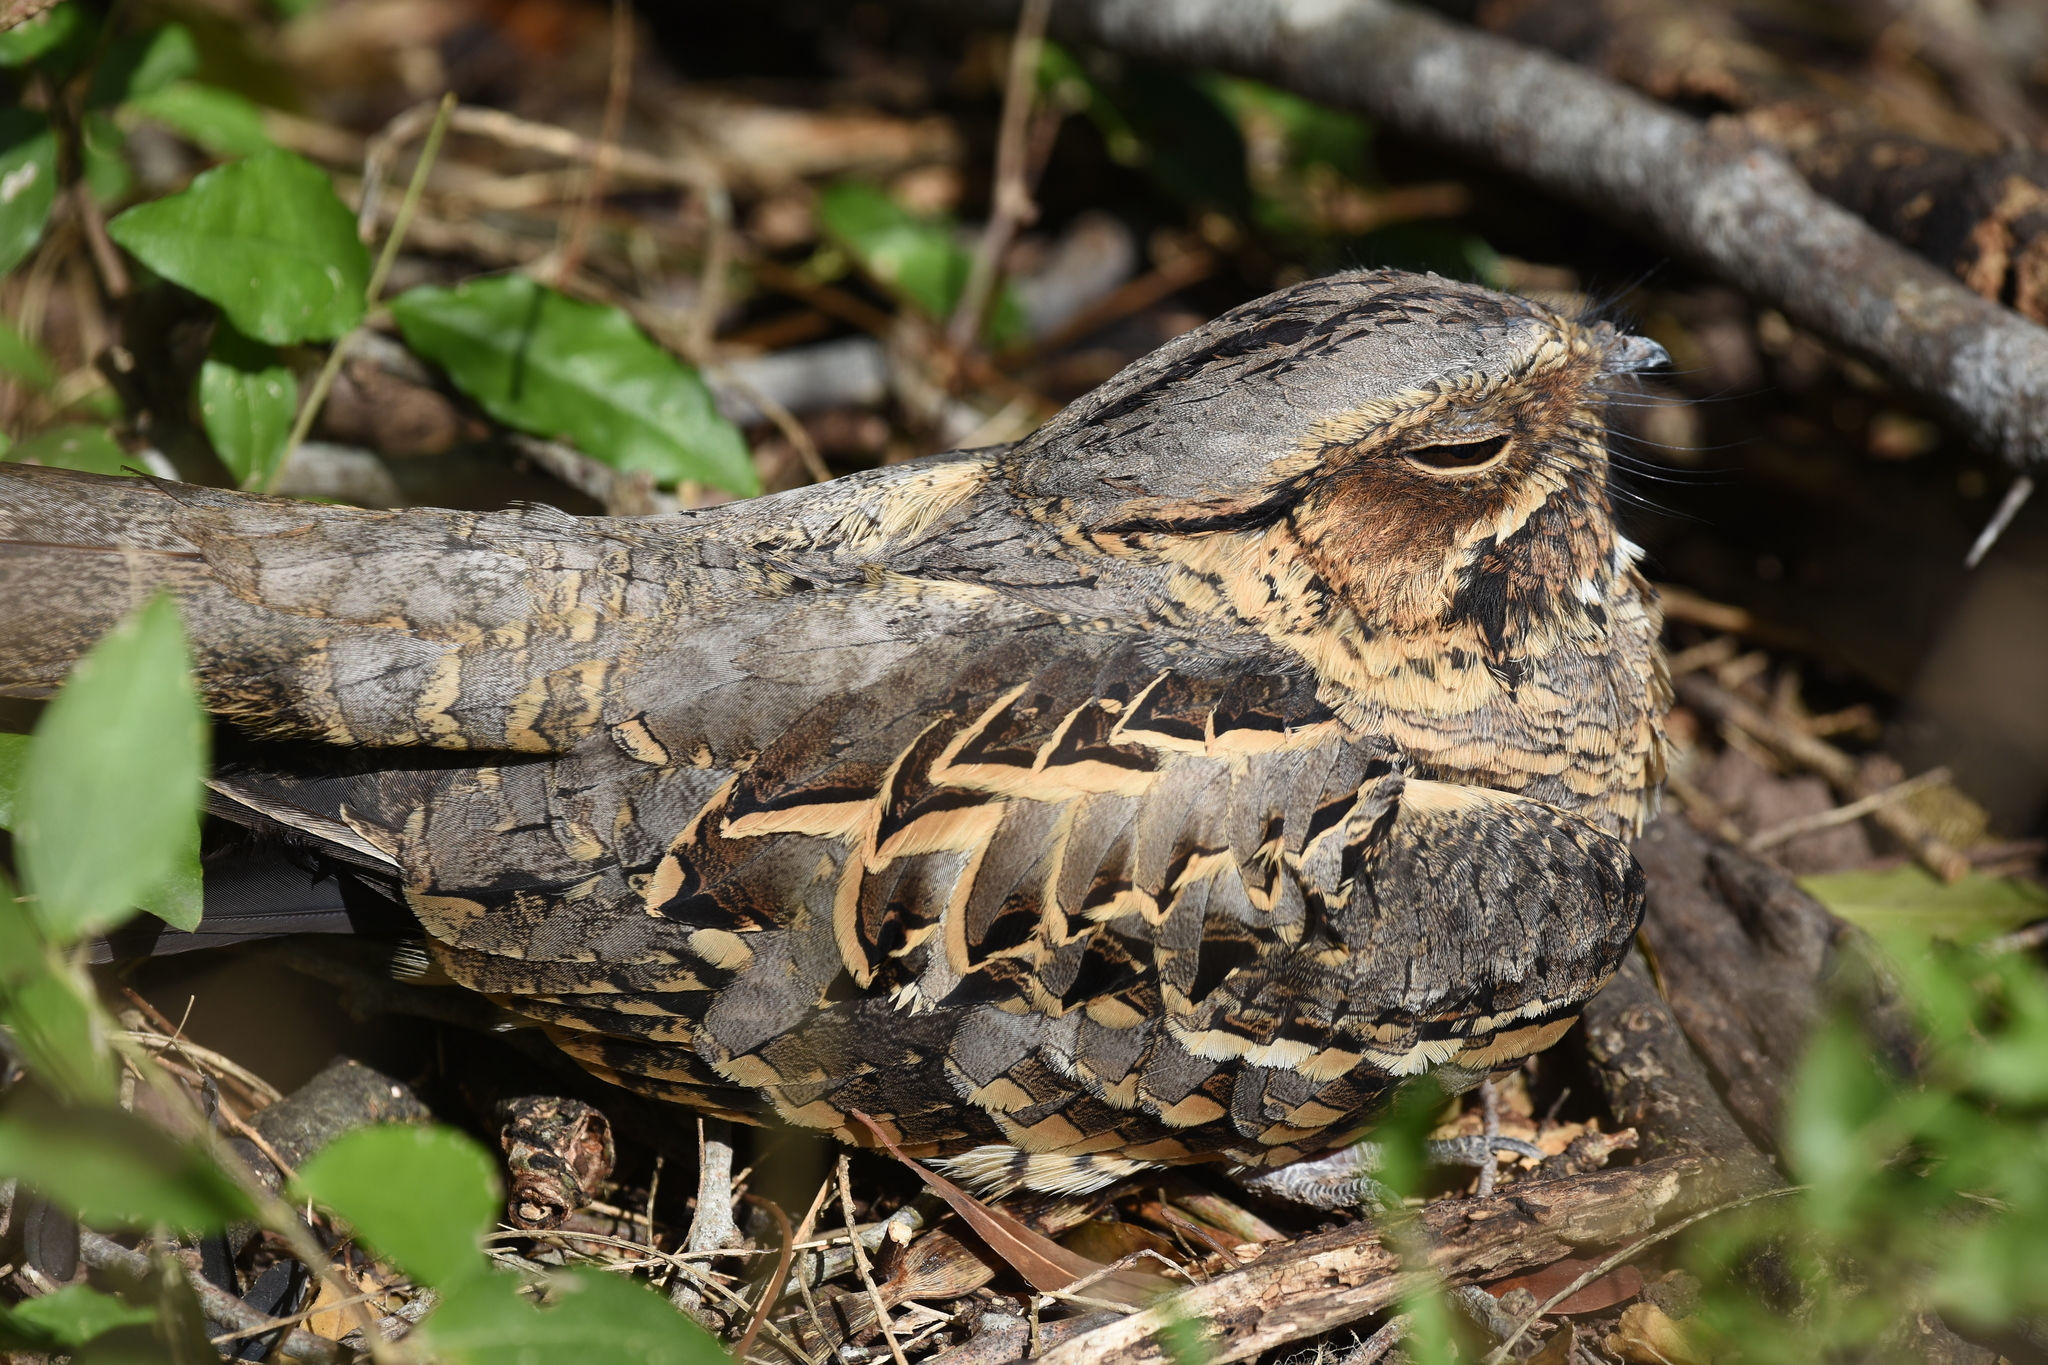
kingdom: Animalia
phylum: Chordata
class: Aves
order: Caprimulgiformes
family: Caprimulgidae
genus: Nyctidromus
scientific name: Nyctidromus albicollis
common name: Pauraque
